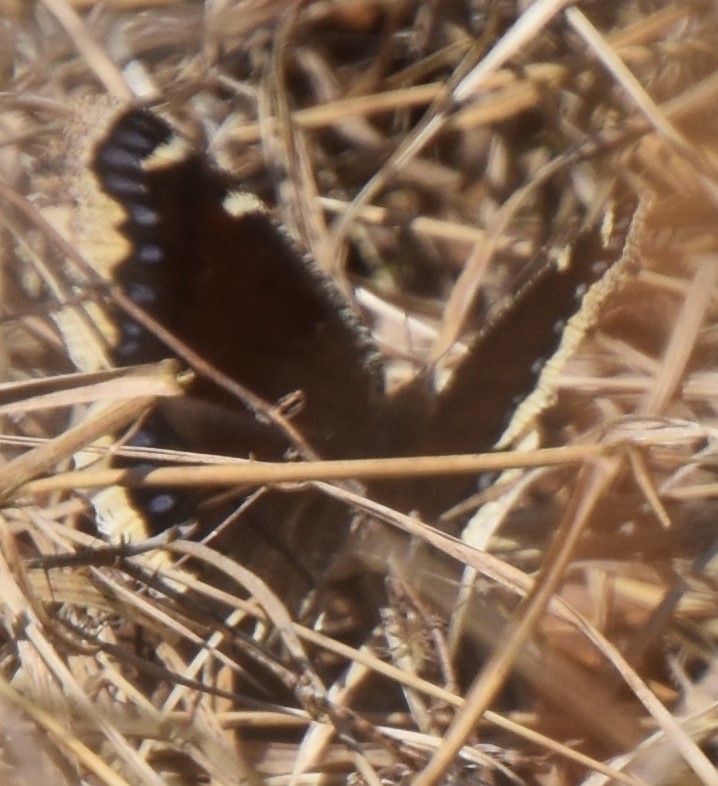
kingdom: Animalia
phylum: Arthropoda
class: Insecta
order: Lepidoptera
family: Nymphalidae
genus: Nymphalis
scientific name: Nymphalis antiopa
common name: Camberwell beauty
